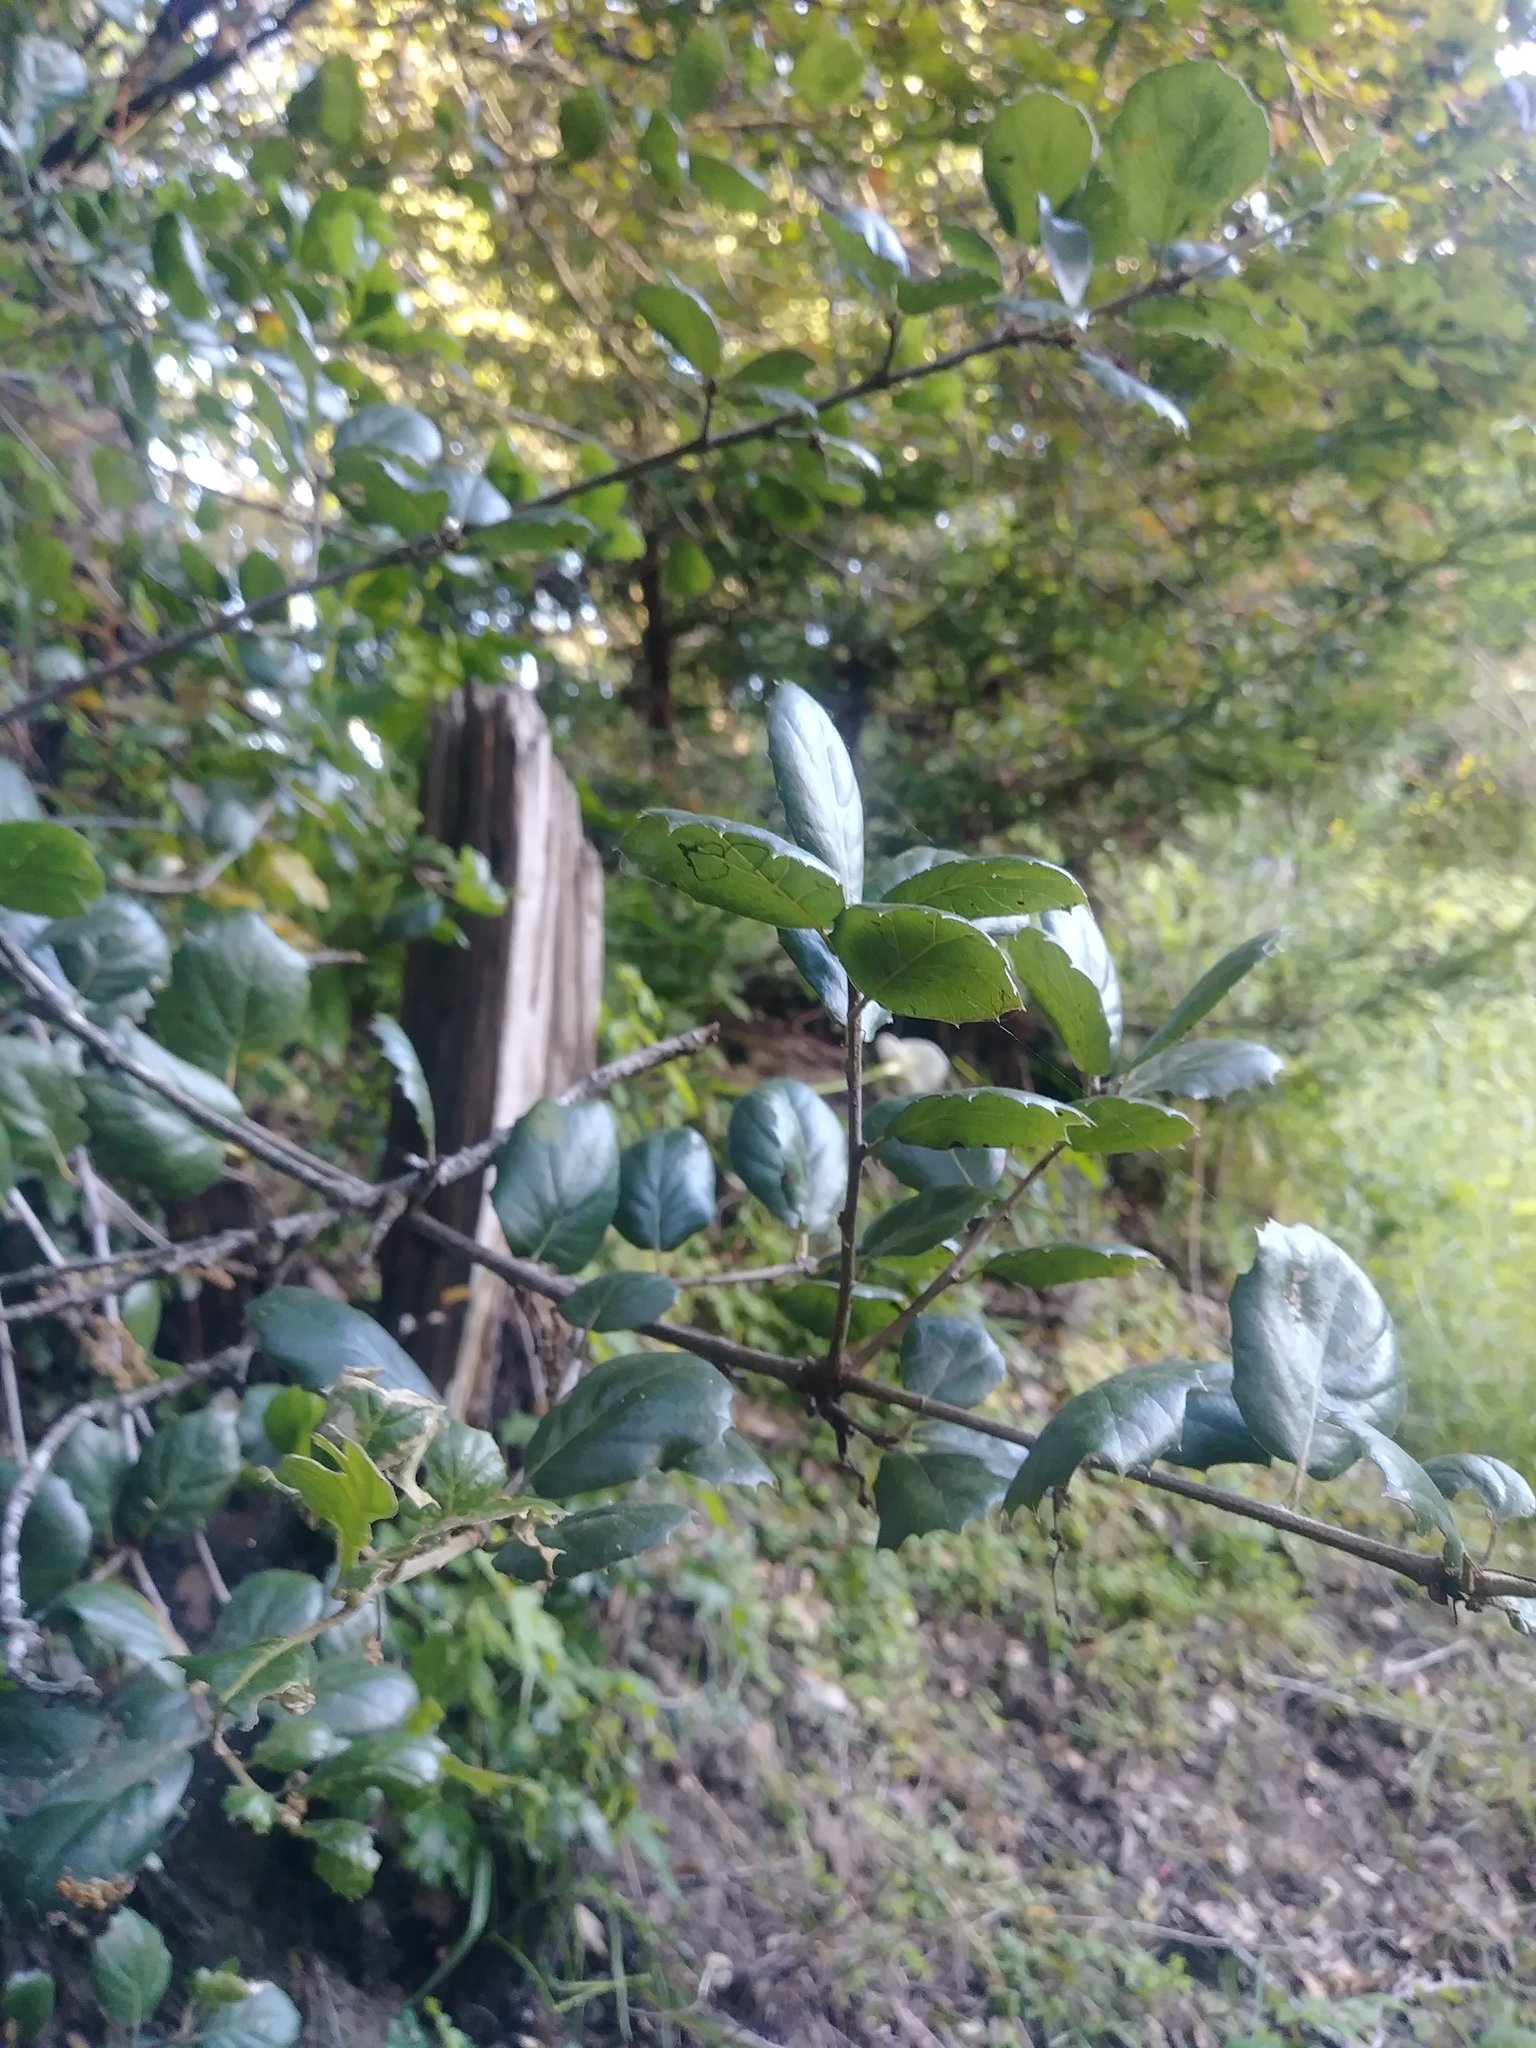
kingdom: Plantae
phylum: Tracheophyta
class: Magnoliopsida
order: Fagales
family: Fagaceae
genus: Quercus
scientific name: Quercus agrifolia
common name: California live oak
